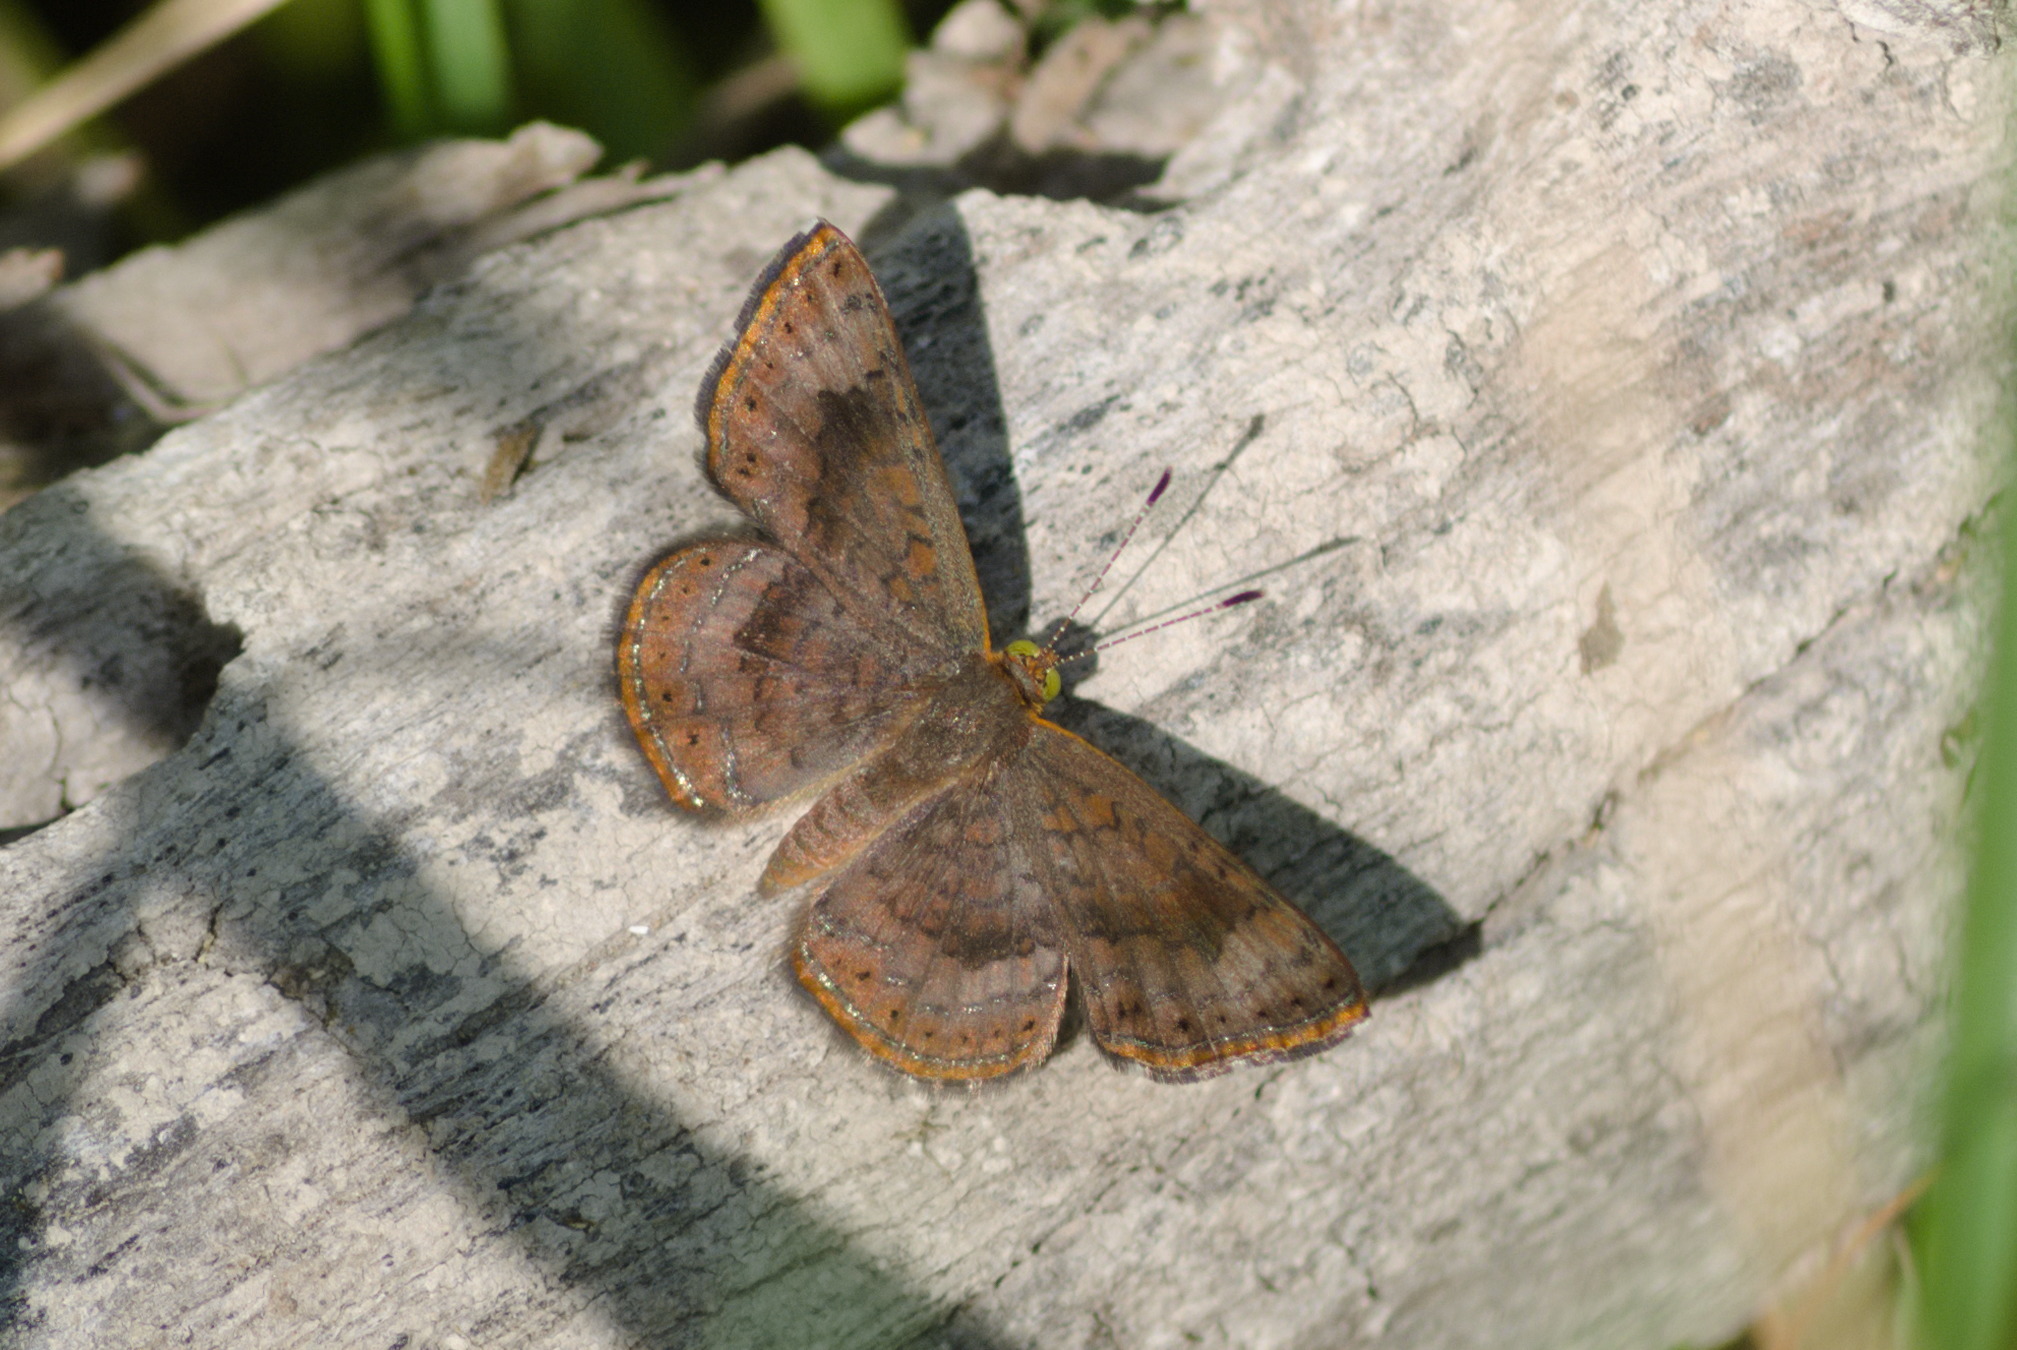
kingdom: Animalia
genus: Calephelis
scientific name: Calephelis nemesis
